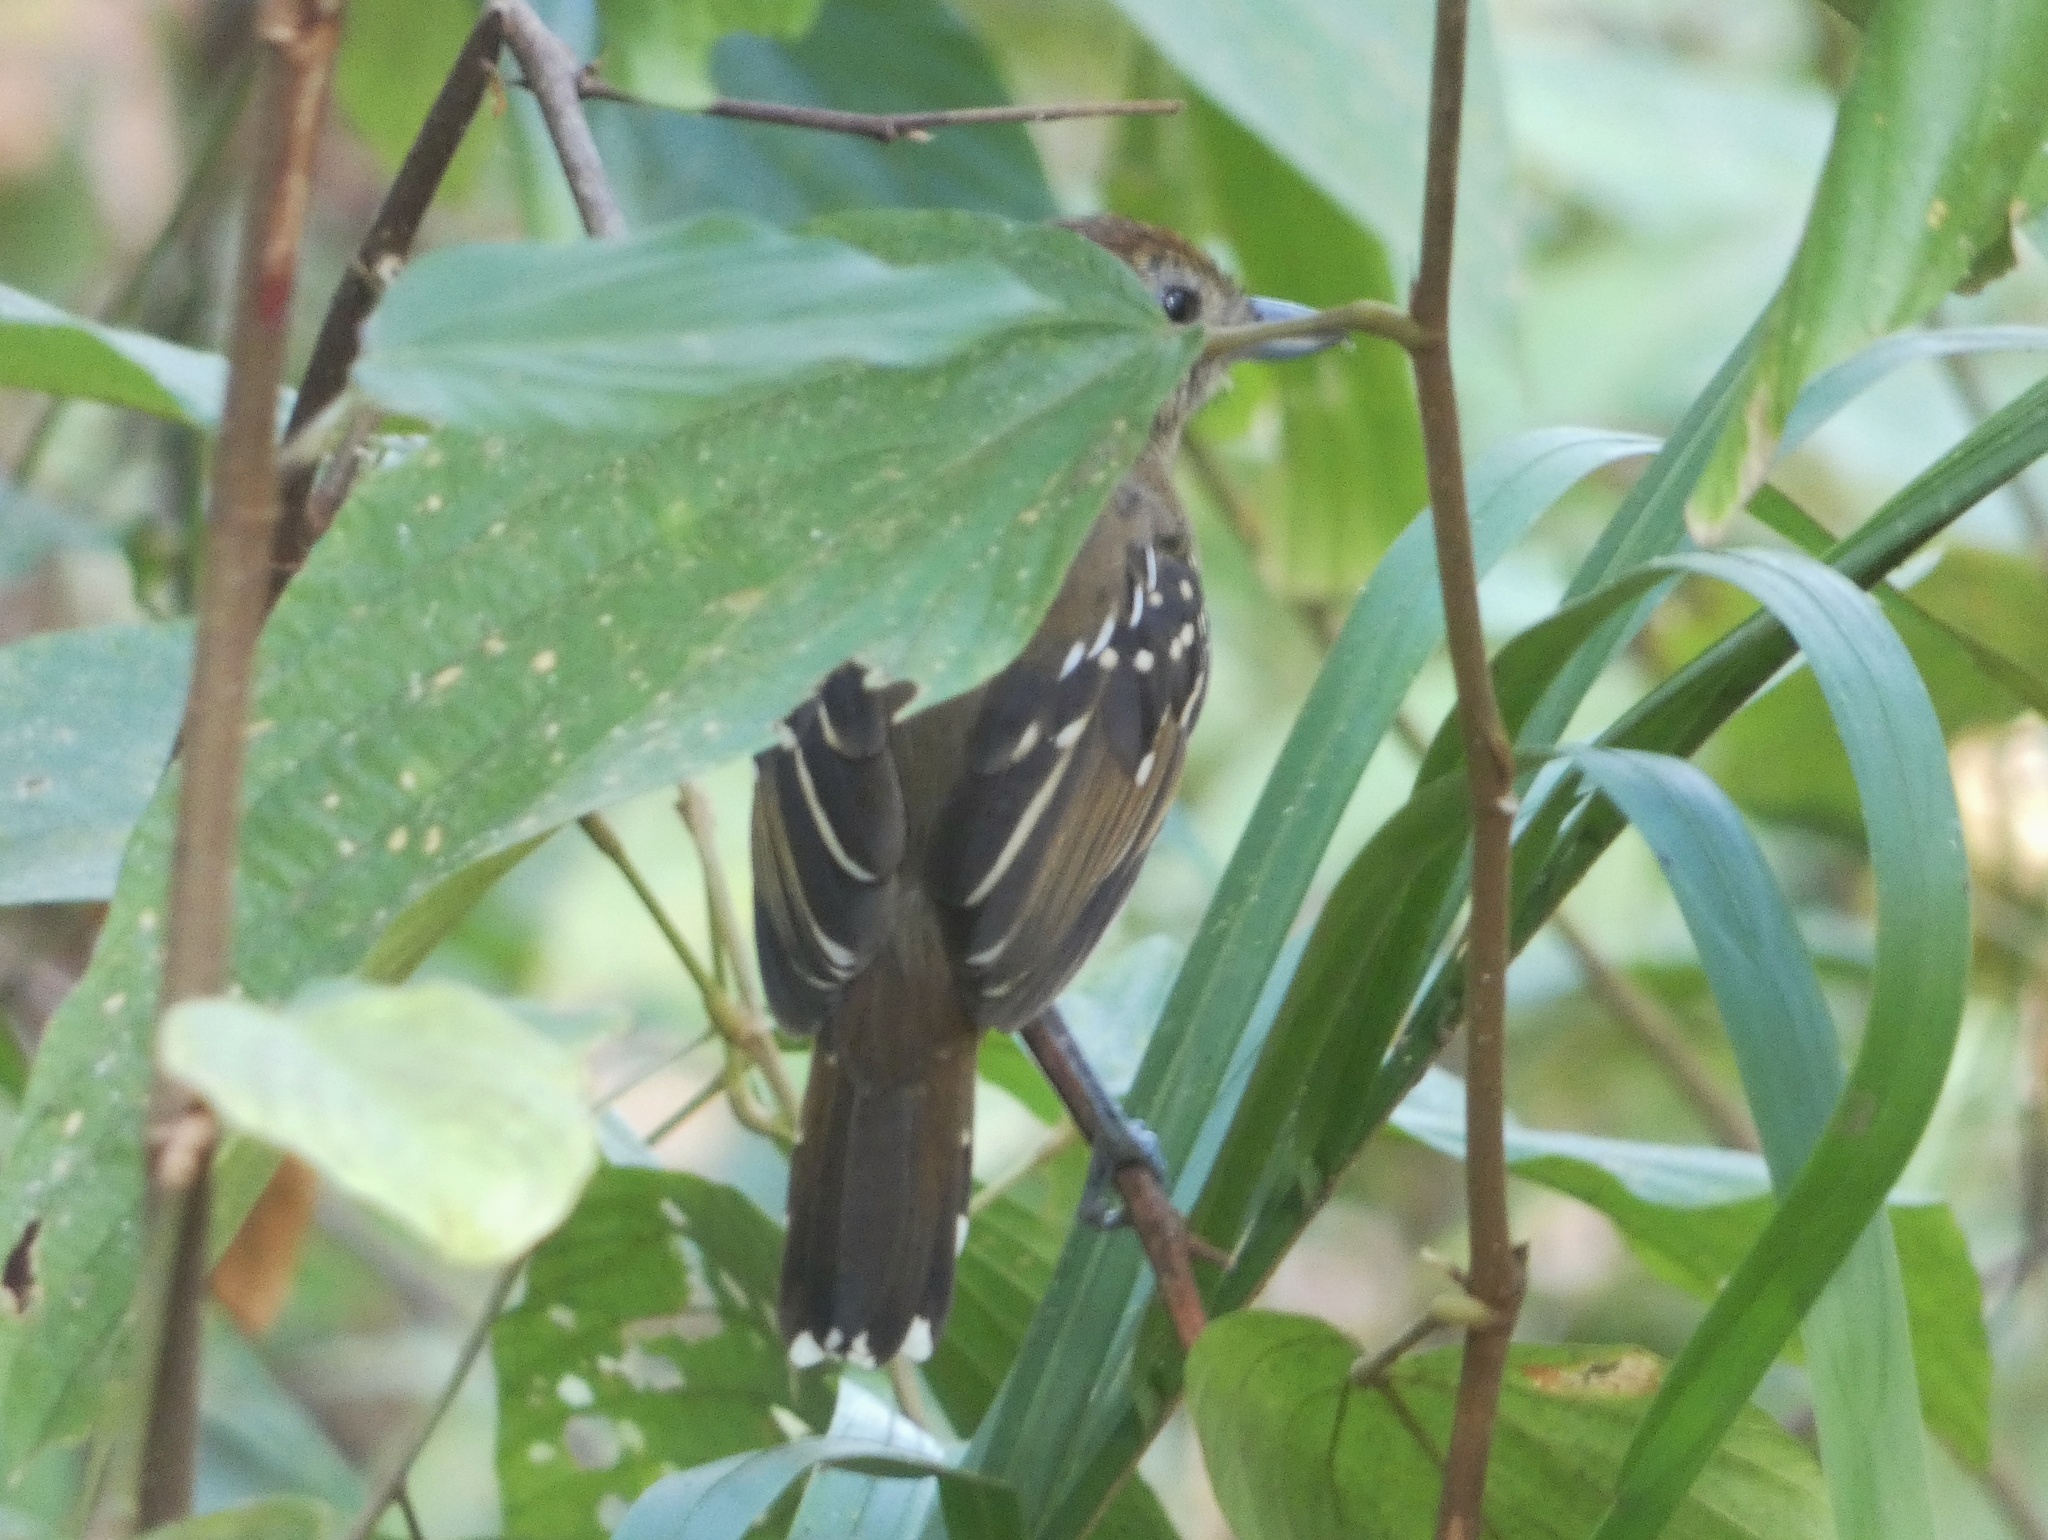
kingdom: Animalia
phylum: Chordata
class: Aves
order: Passeriformes
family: Thamnophilidae
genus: Thamnophilus
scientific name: Thamnophilus atrinucha
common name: Black-crowned antshrike
